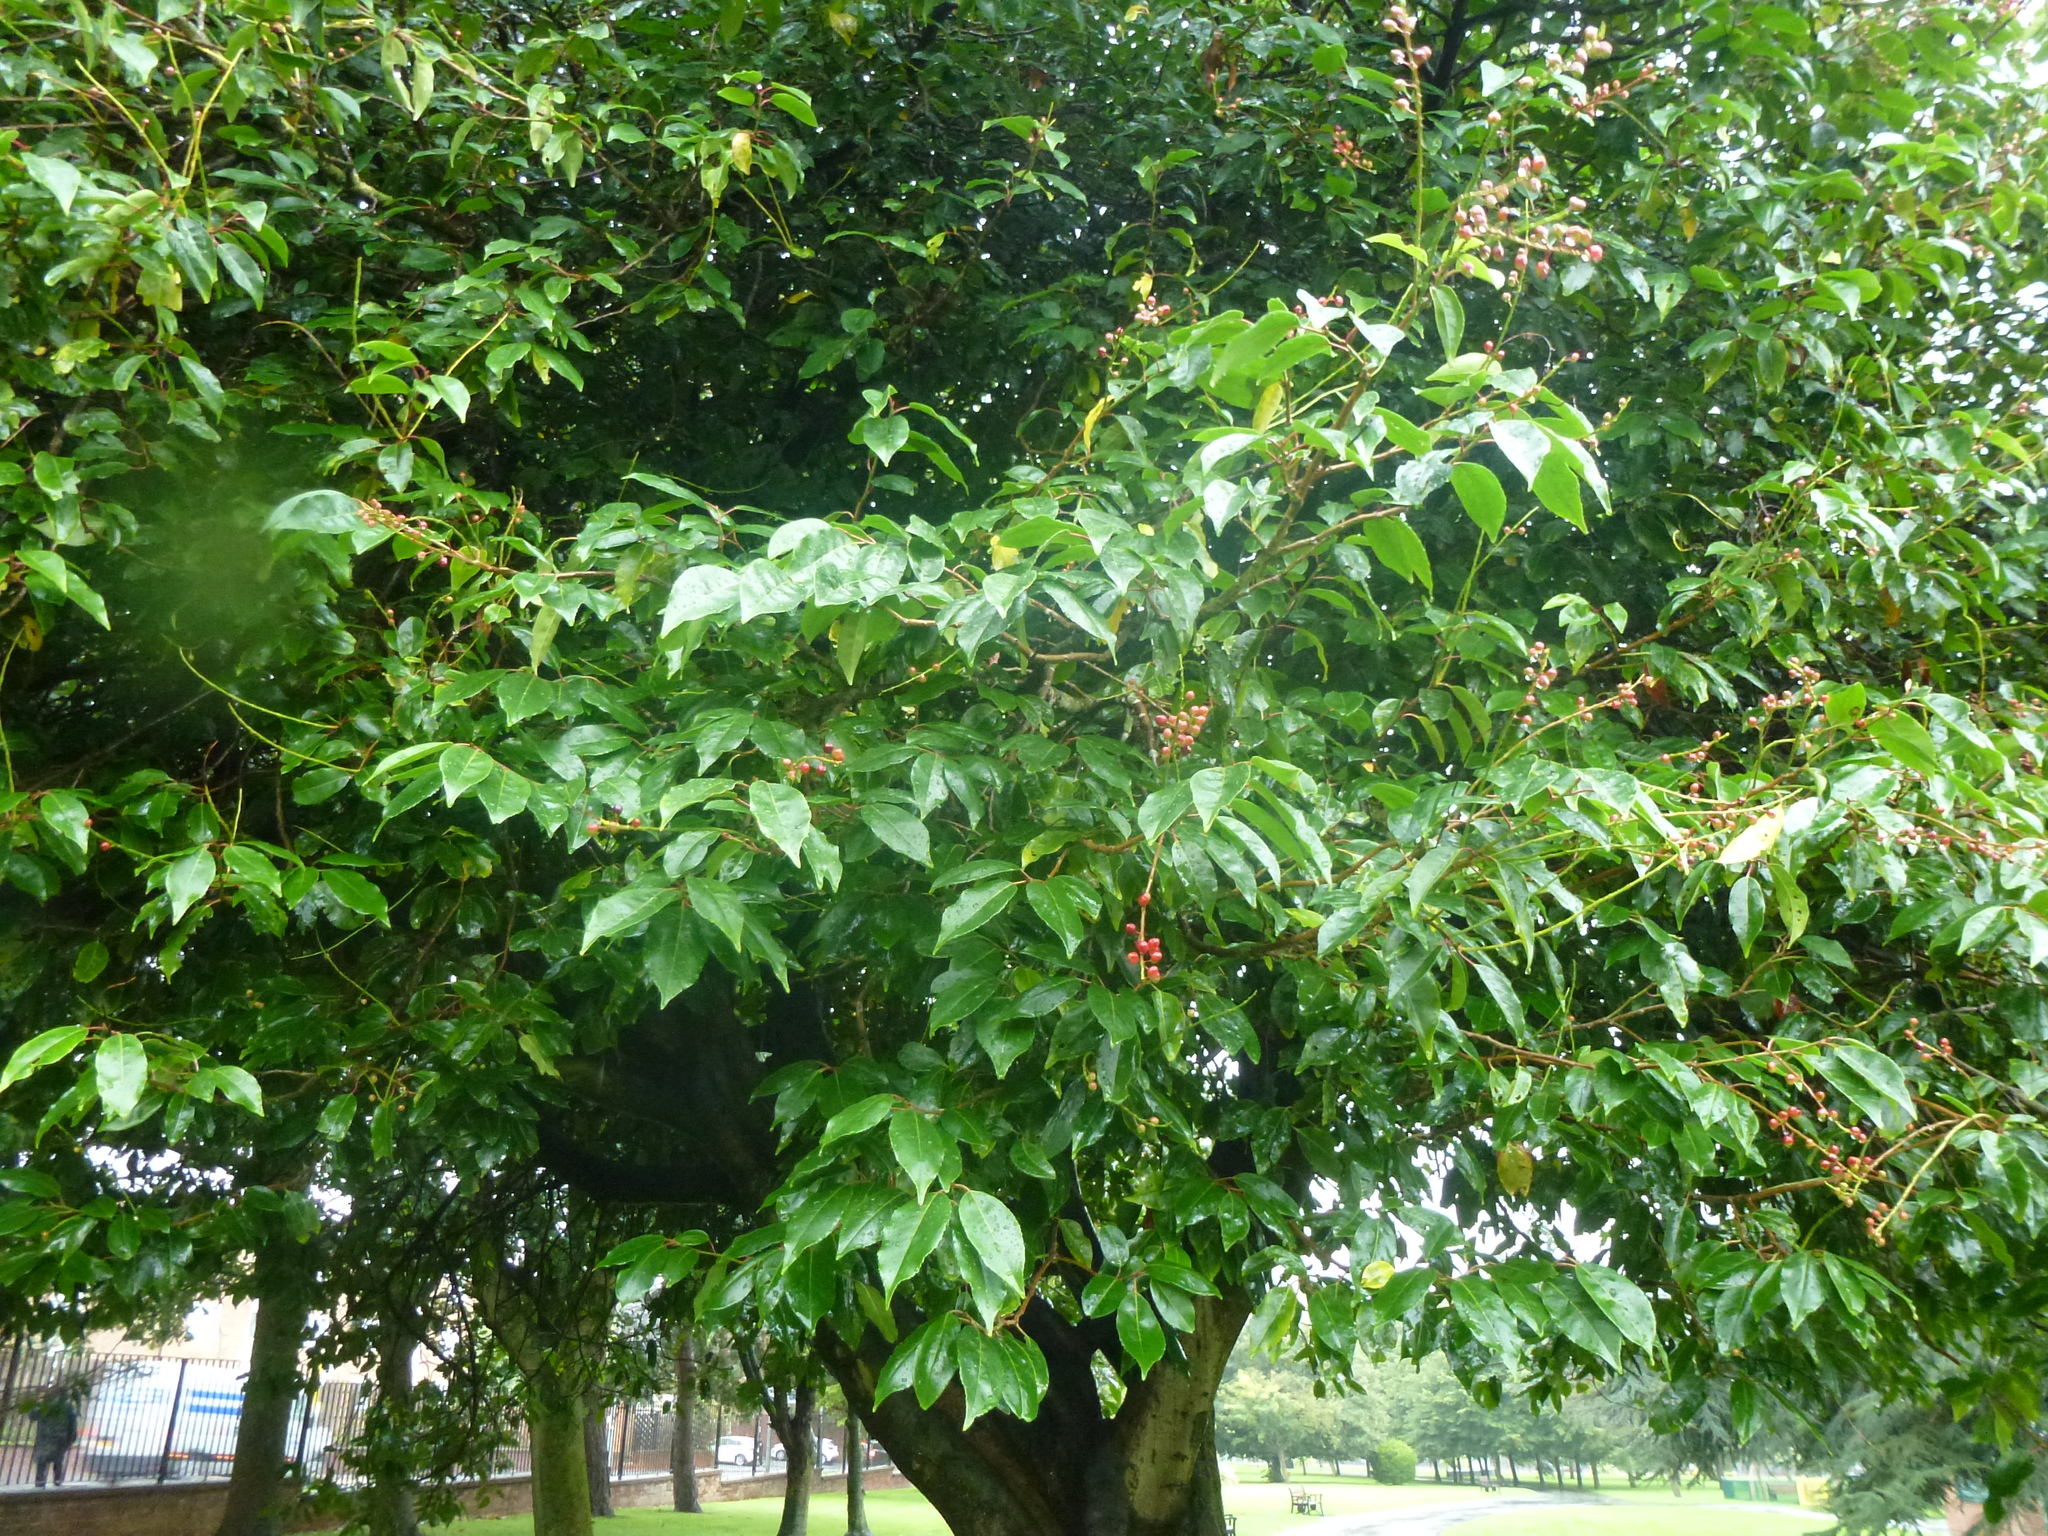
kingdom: Plantae
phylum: Tracheophyta
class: Magnoliopsida
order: Rosales
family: Rosaceae
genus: Prunus
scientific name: Prunus lusitanica
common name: Portugal laurel
